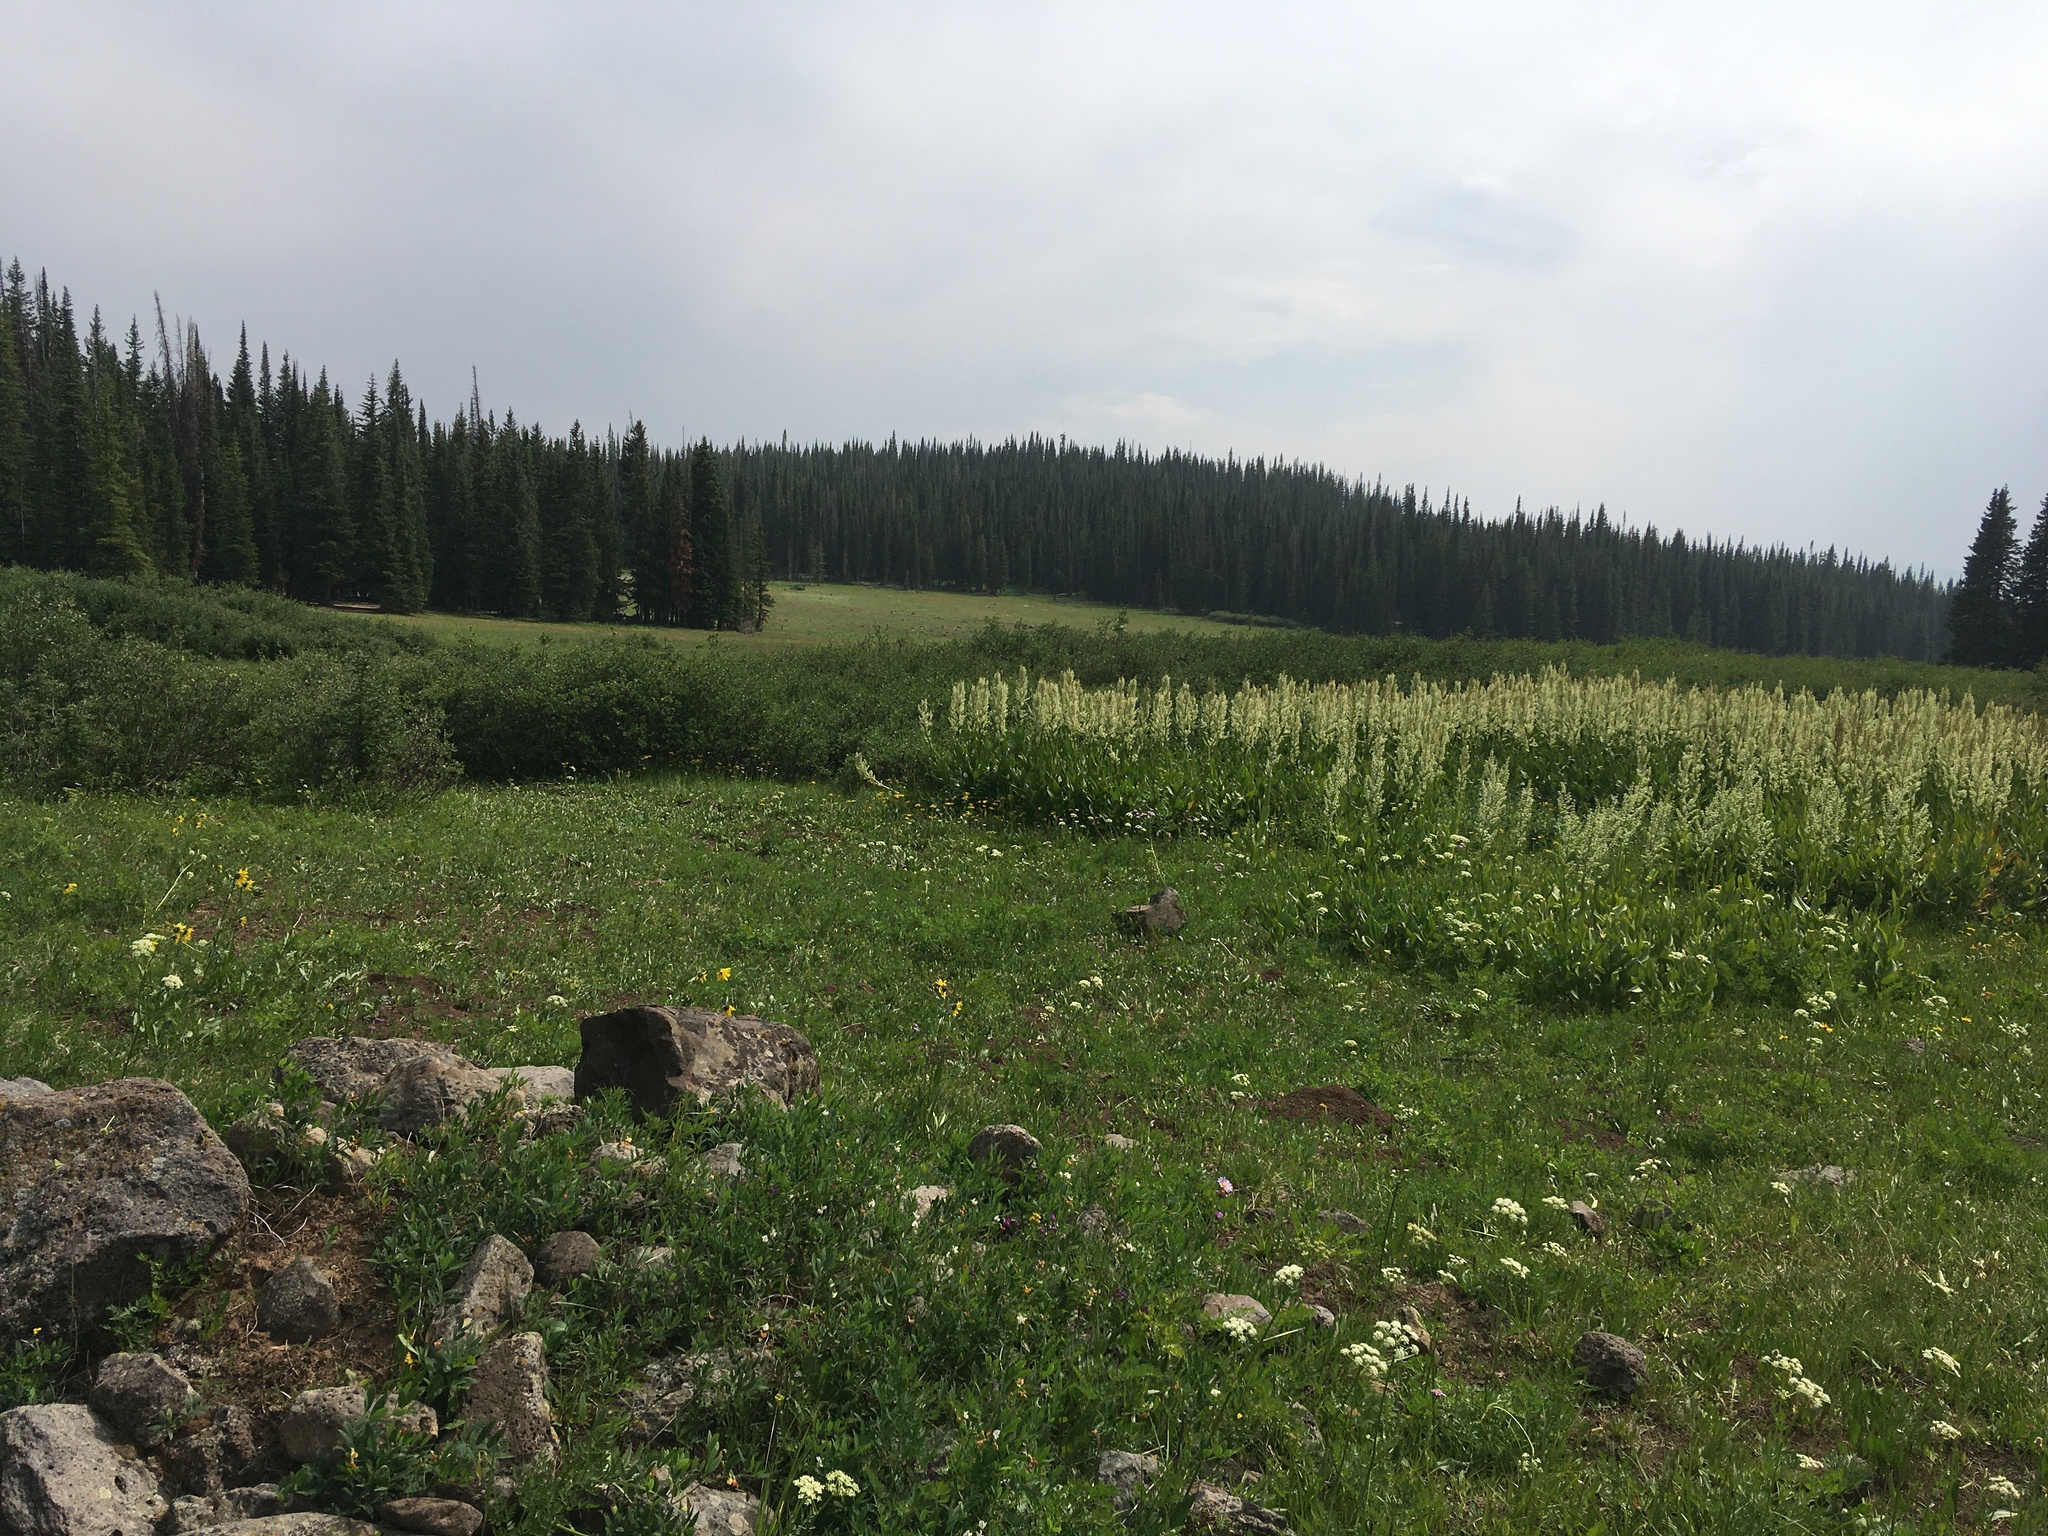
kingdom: Plantae
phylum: Tracheophyta
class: Liliopsida
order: Liliales
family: Melanthiaceae
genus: Veratrum
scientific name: Veratrum californicum
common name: California veratrum
